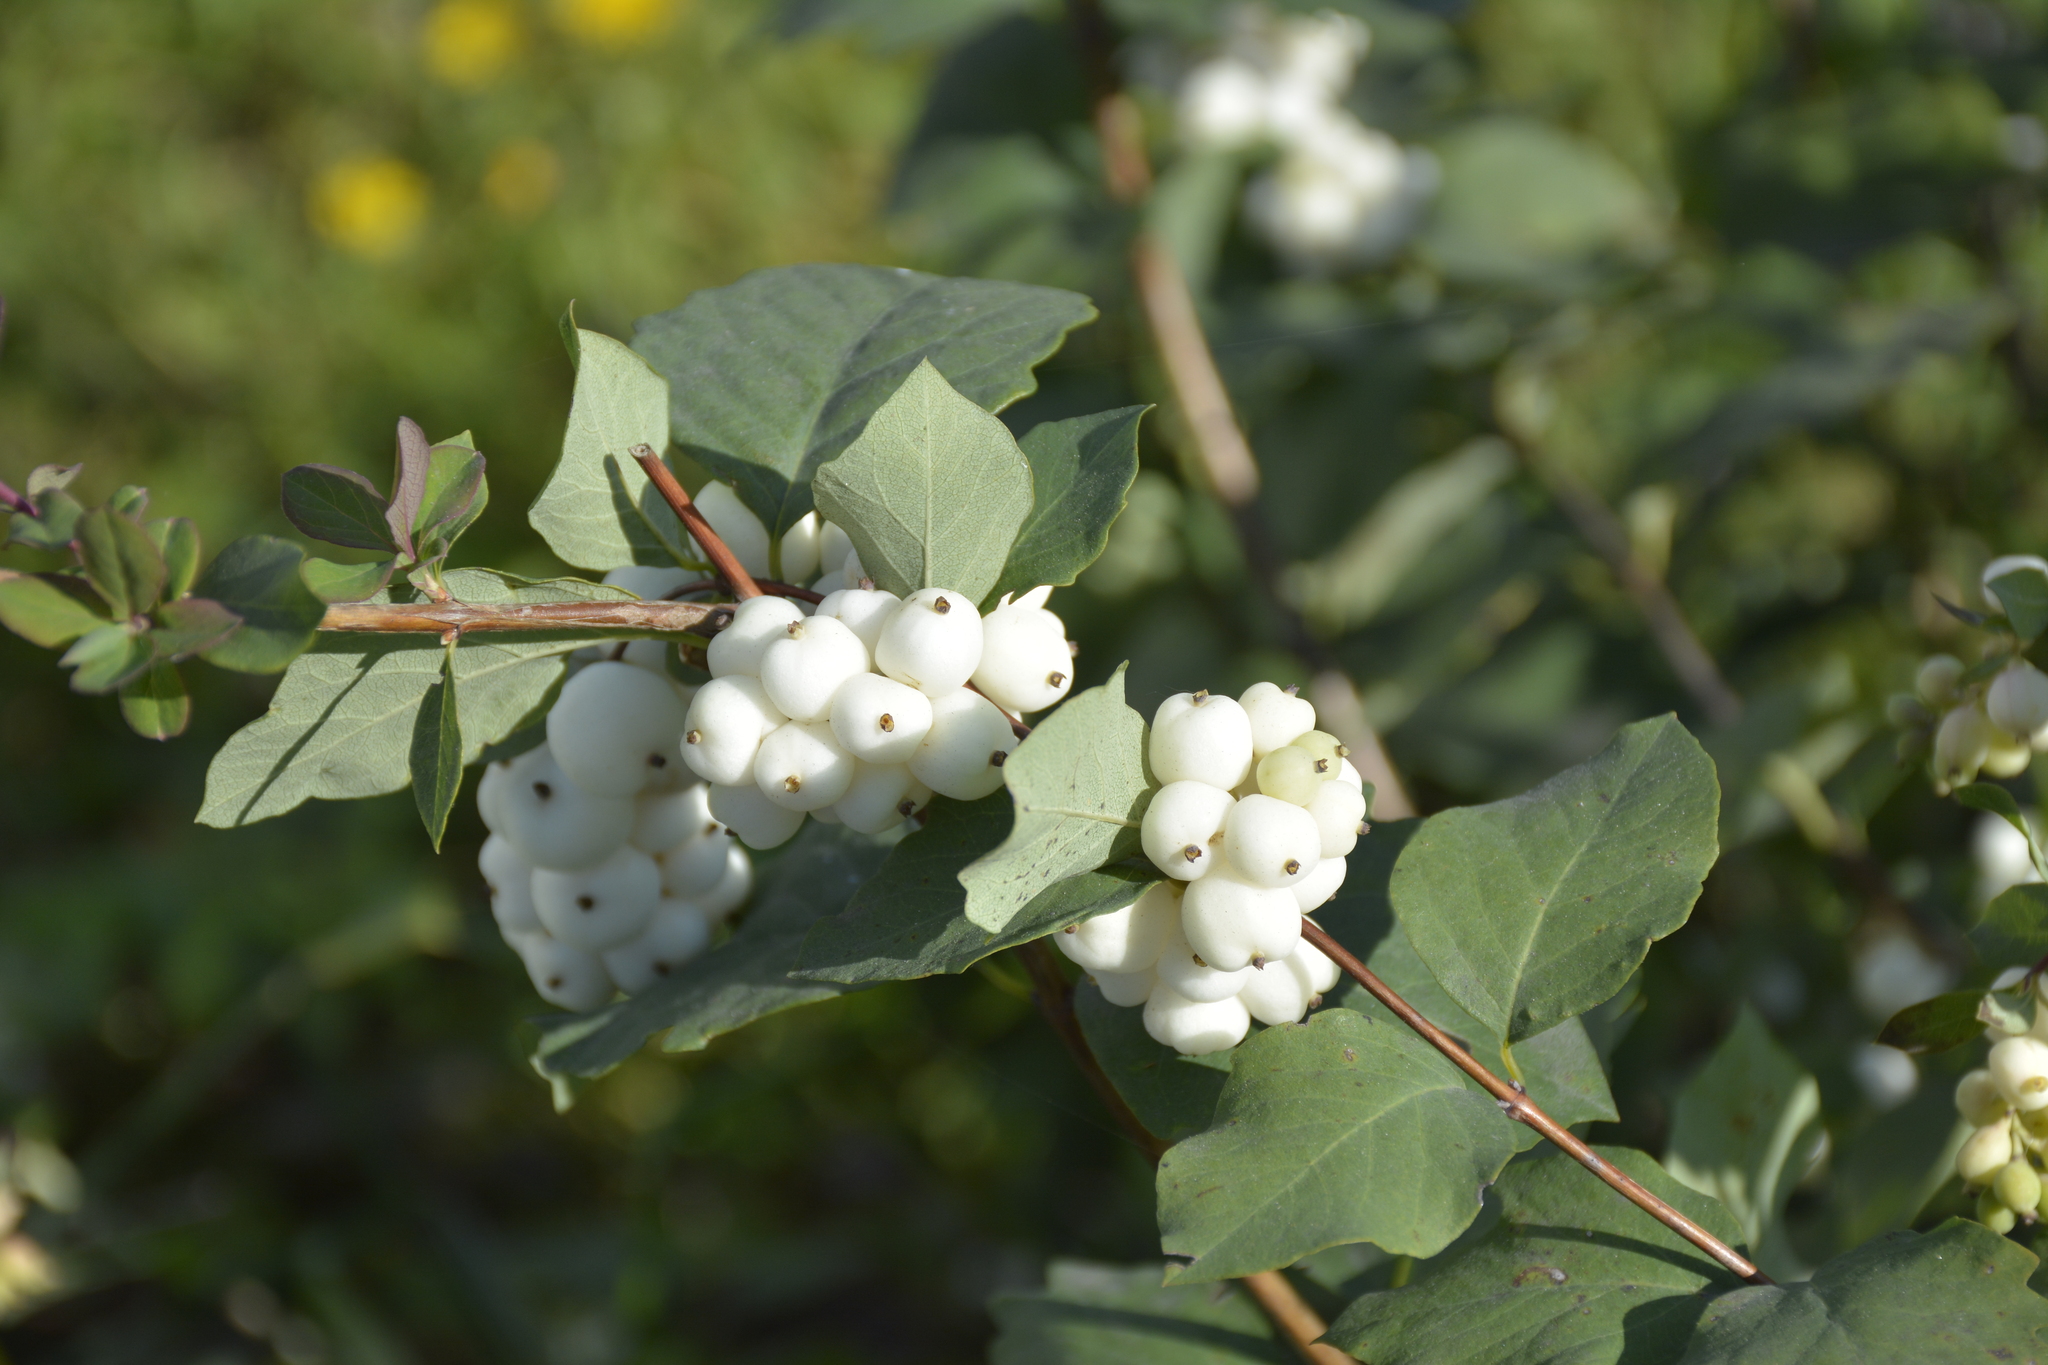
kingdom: Plantae
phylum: Tracheophyta
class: Magnoliopsida
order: Dipsacales
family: Caprifoliaceae
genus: Symphoricarpos
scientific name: Symphoricarpos albus
